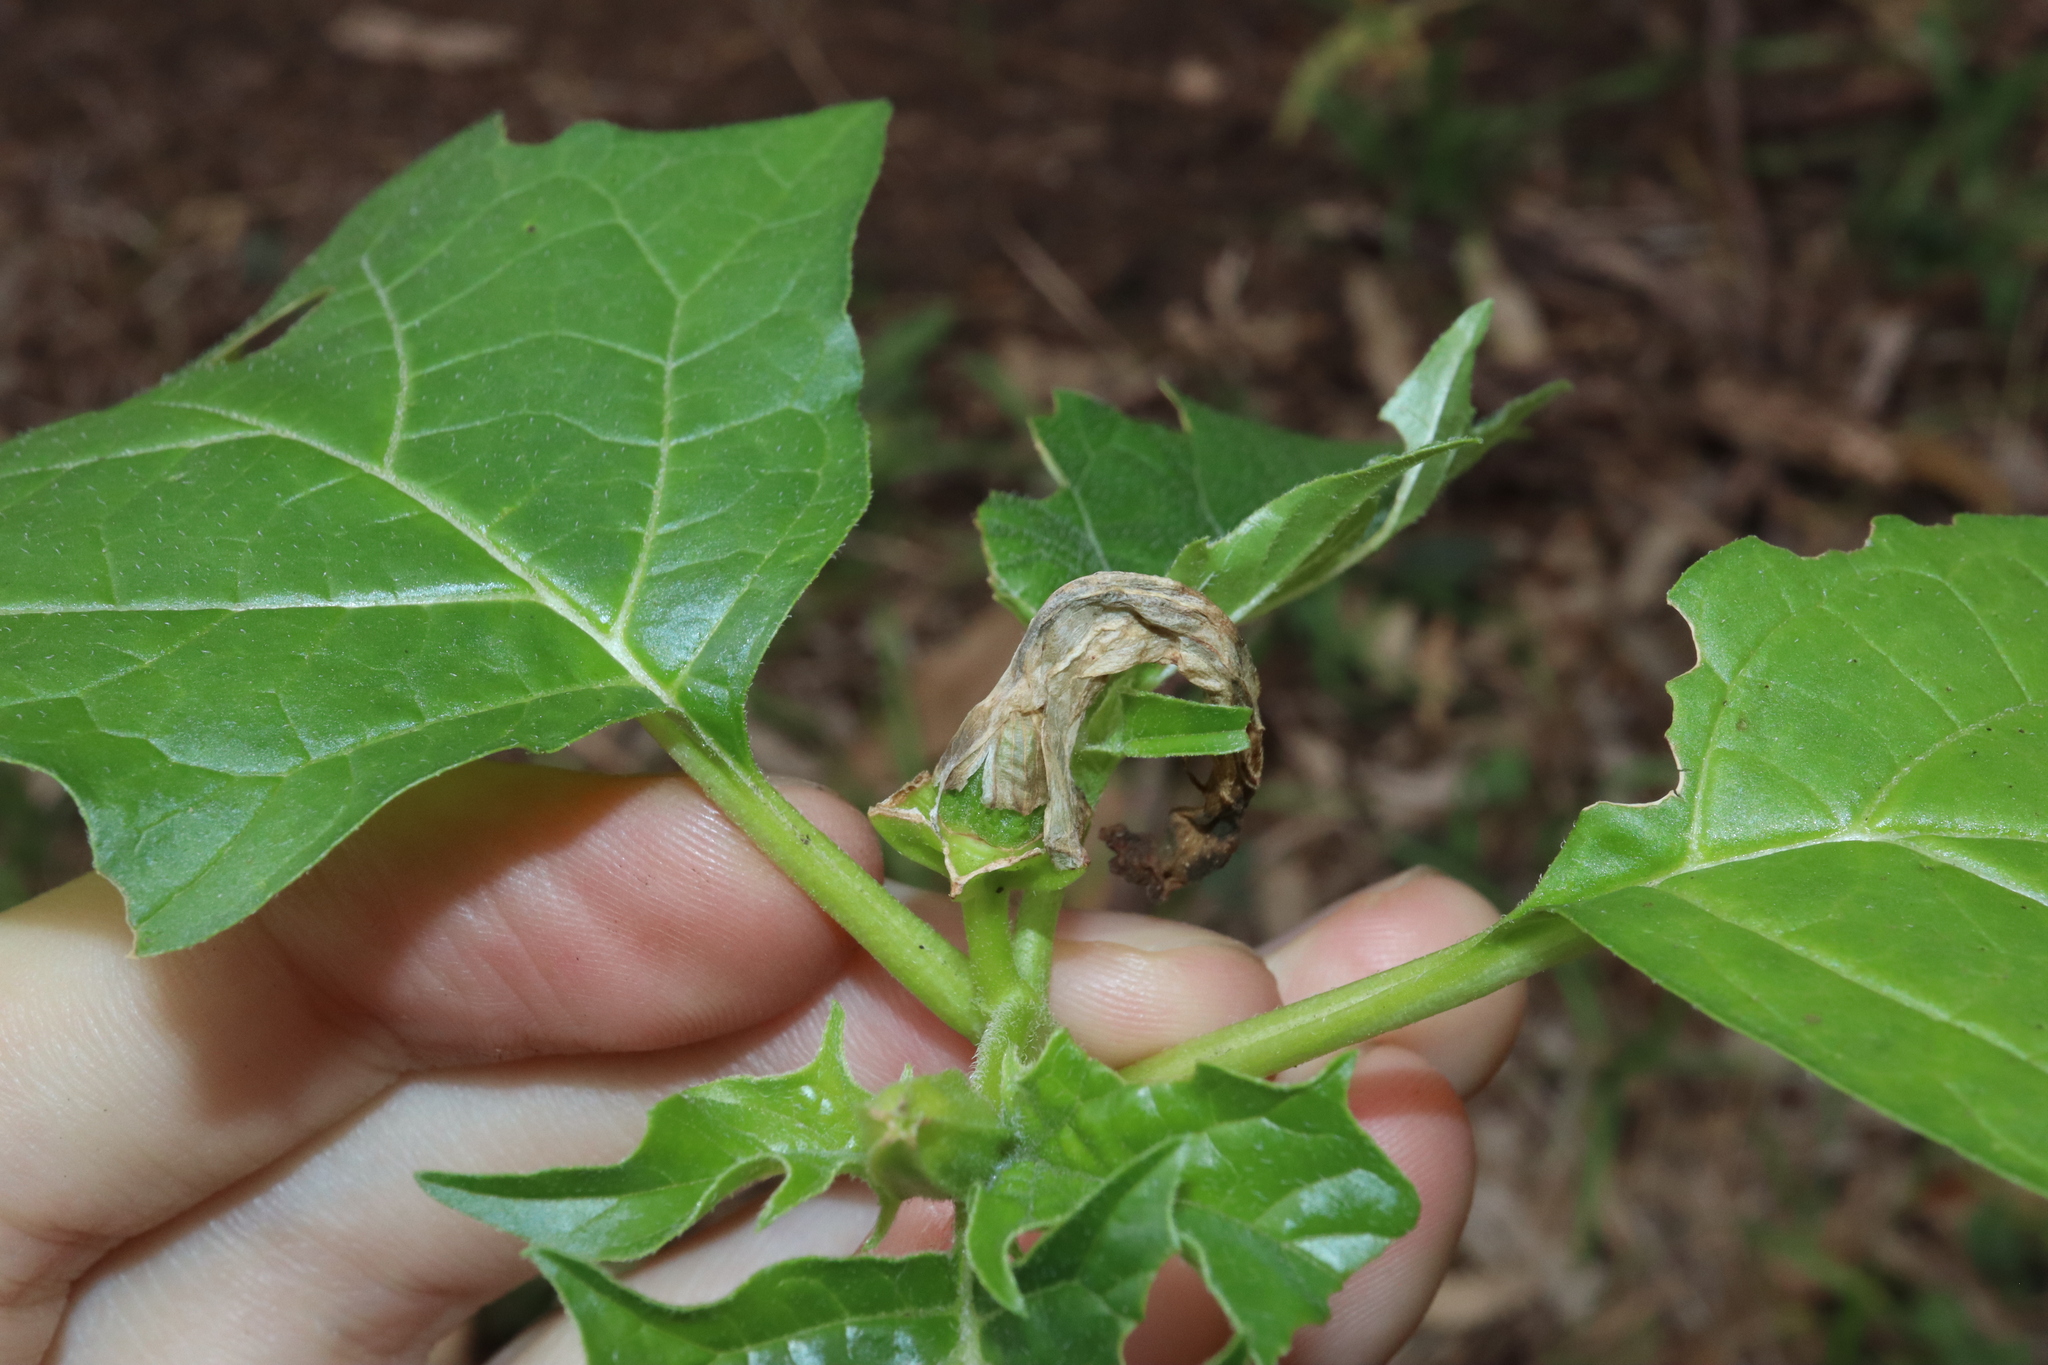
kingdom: Plantae
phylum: Tracheophyta
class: Magnoliopsida
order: Solanales
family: Solanaceae
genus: Datura
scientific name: Datura stramonium
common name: Thorn-apple
